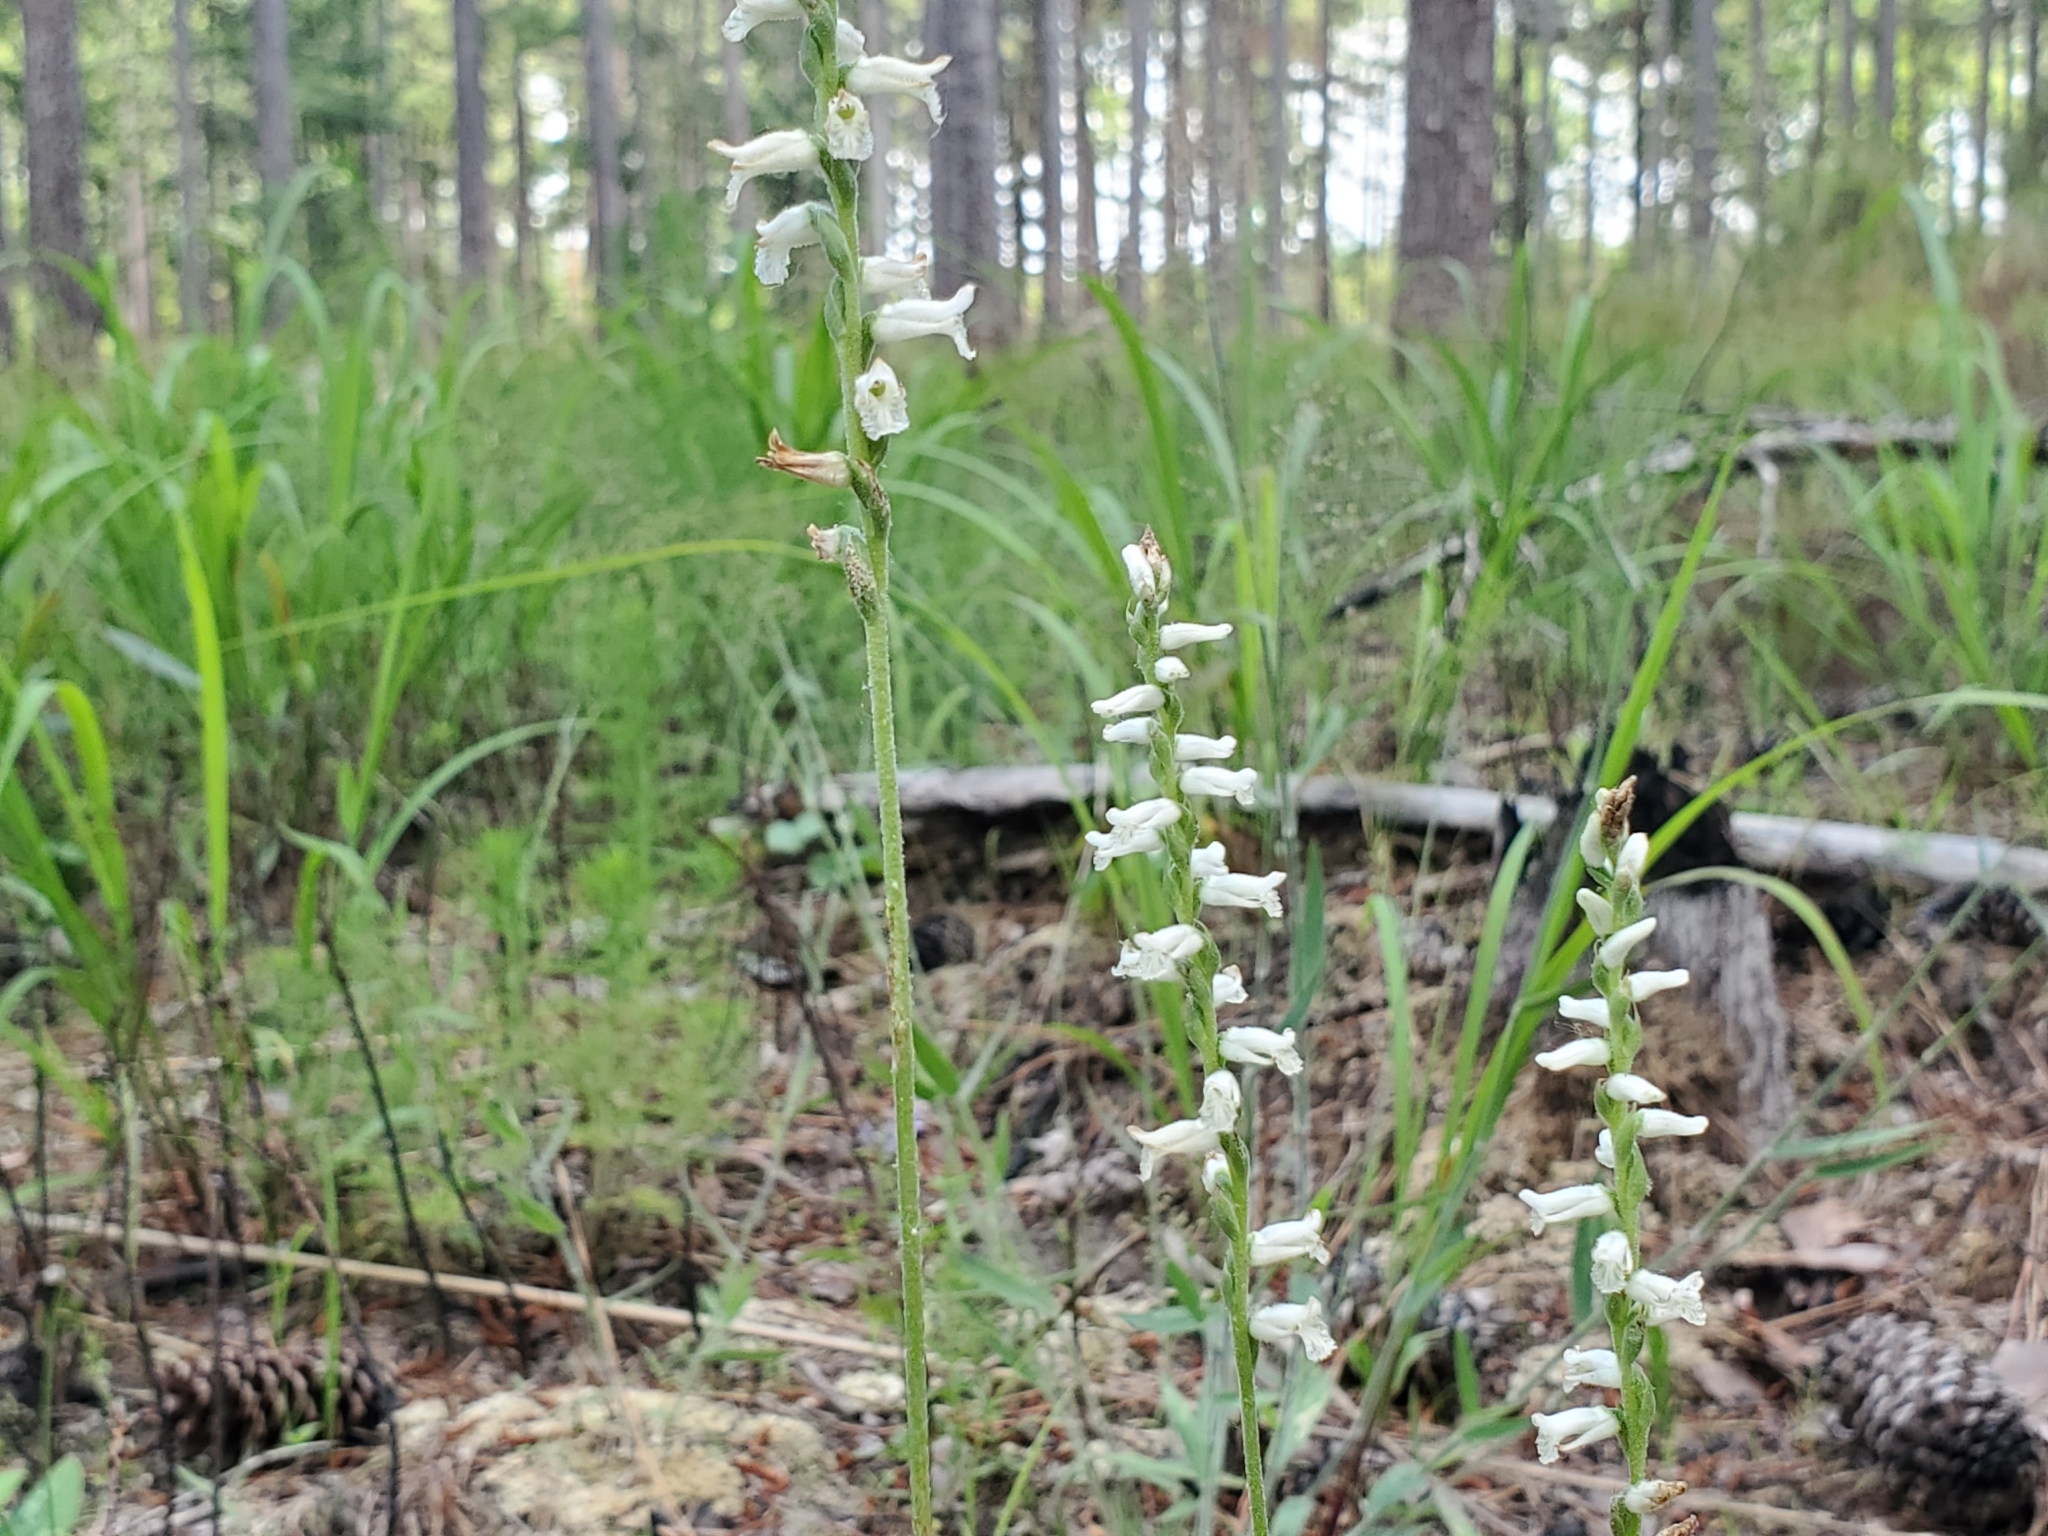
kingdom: Plantae
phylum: Tracheophyta
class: Liliopsida
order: Asparagales
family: Orchidaceae
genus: Spiranthes
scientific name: Spiranthes praecox
